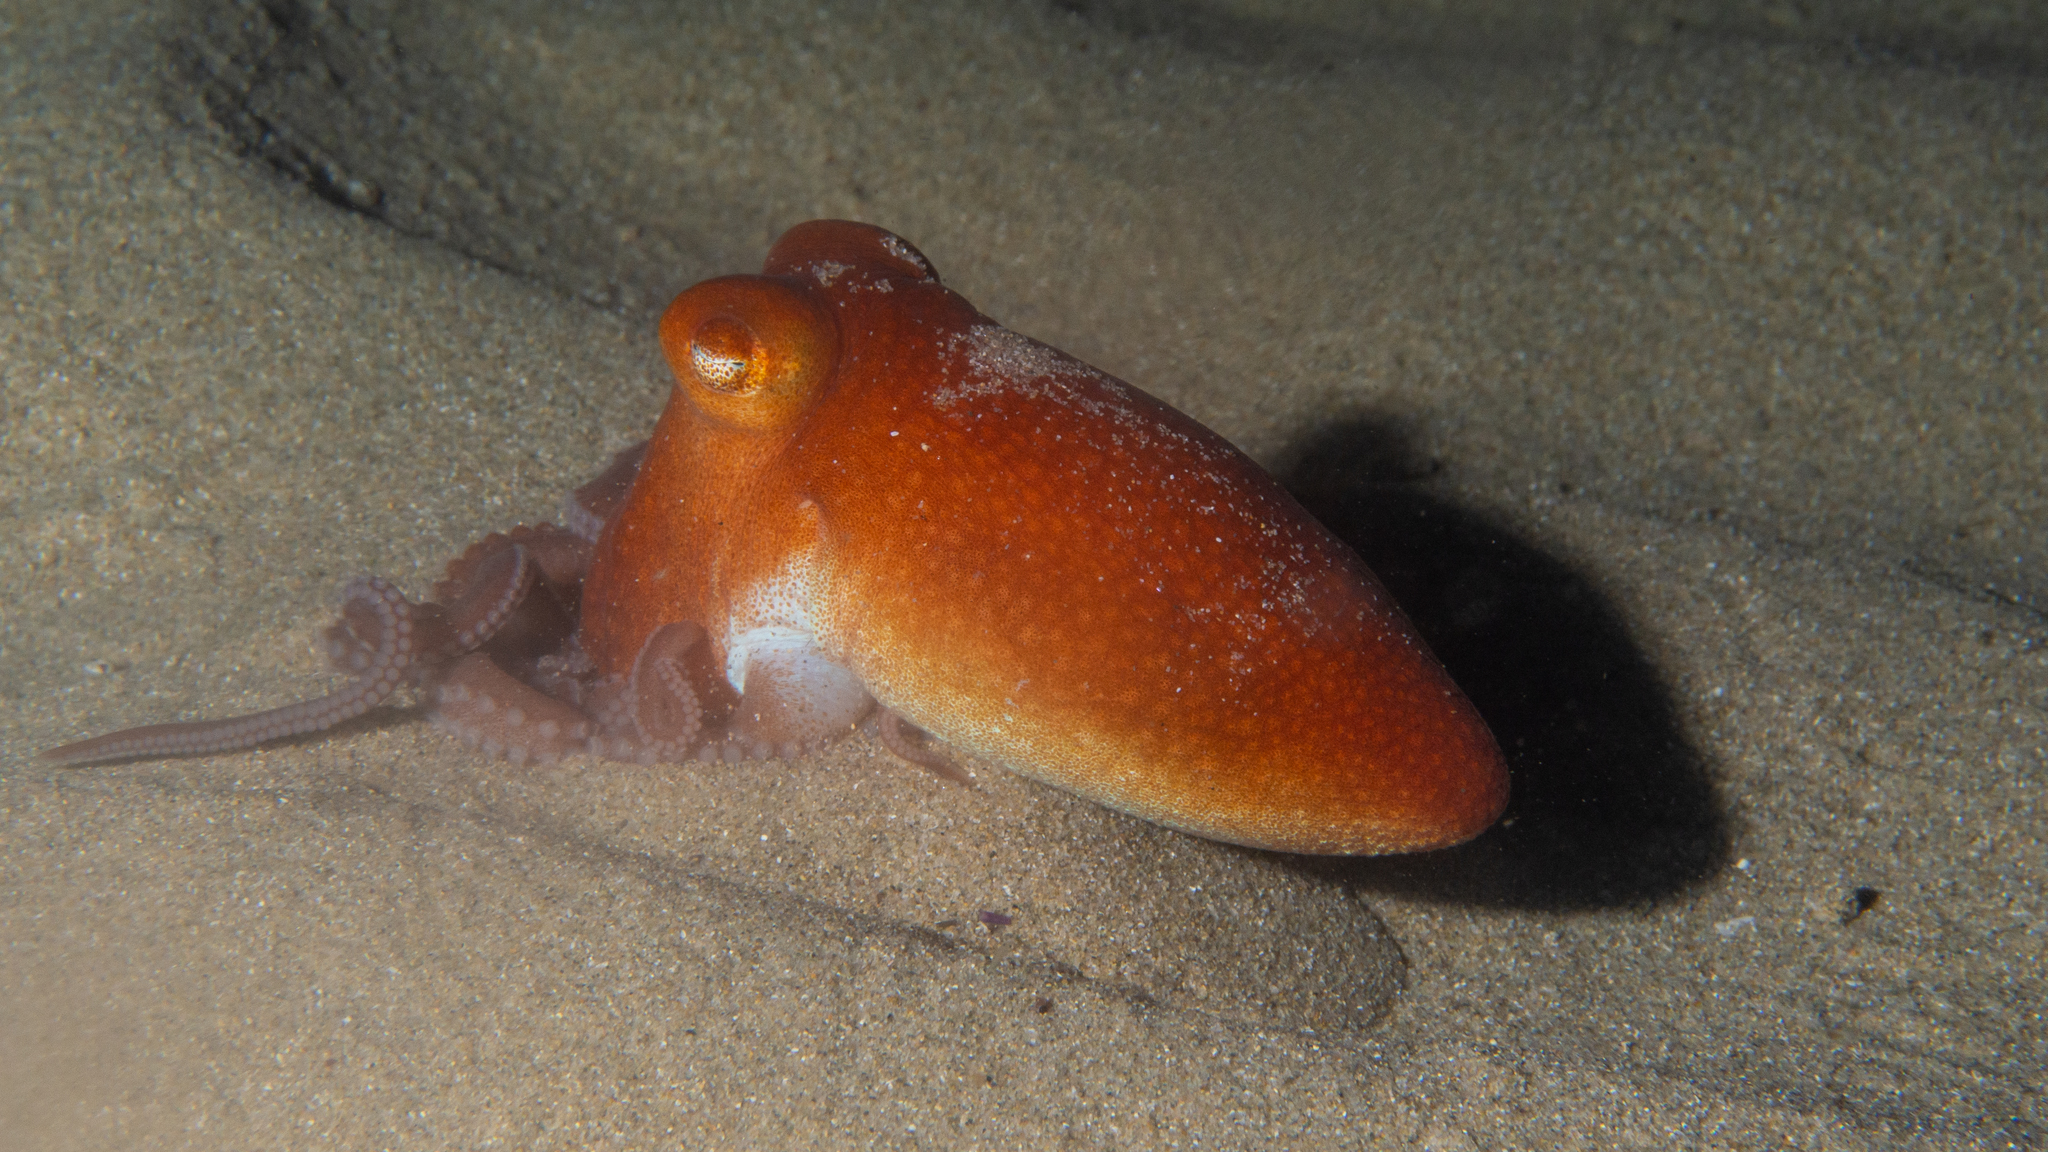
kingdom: Animalia
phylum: Mollusca
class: Cephalopoda
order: Octopoda
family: Octopodidae
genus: Octopus
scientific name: Octopus kaurna
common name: Southern sand octopus
